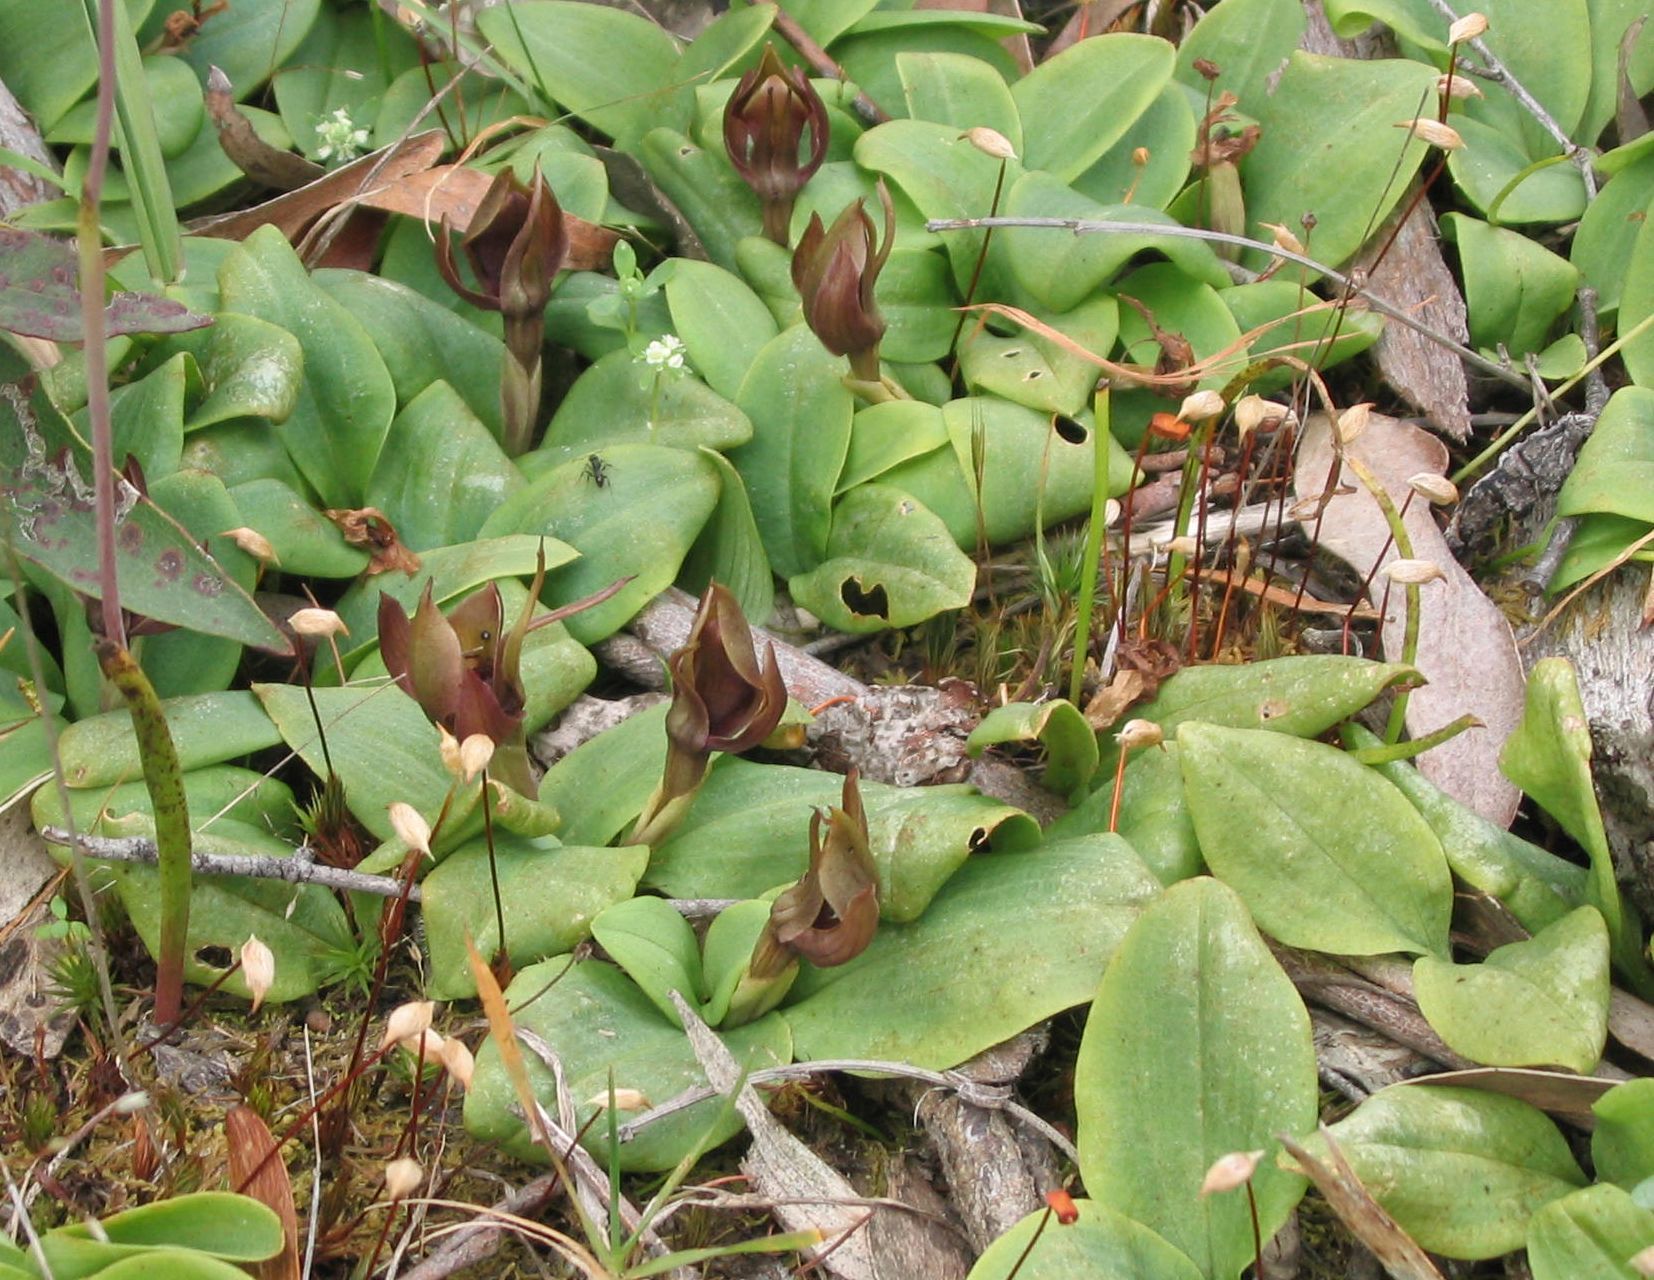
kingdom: Plantae
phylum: Tracheophyta
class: Liliopsida
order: Asparagales
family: Orchidaceae
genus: Chiloglottis
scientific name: Chiloglottis valida
